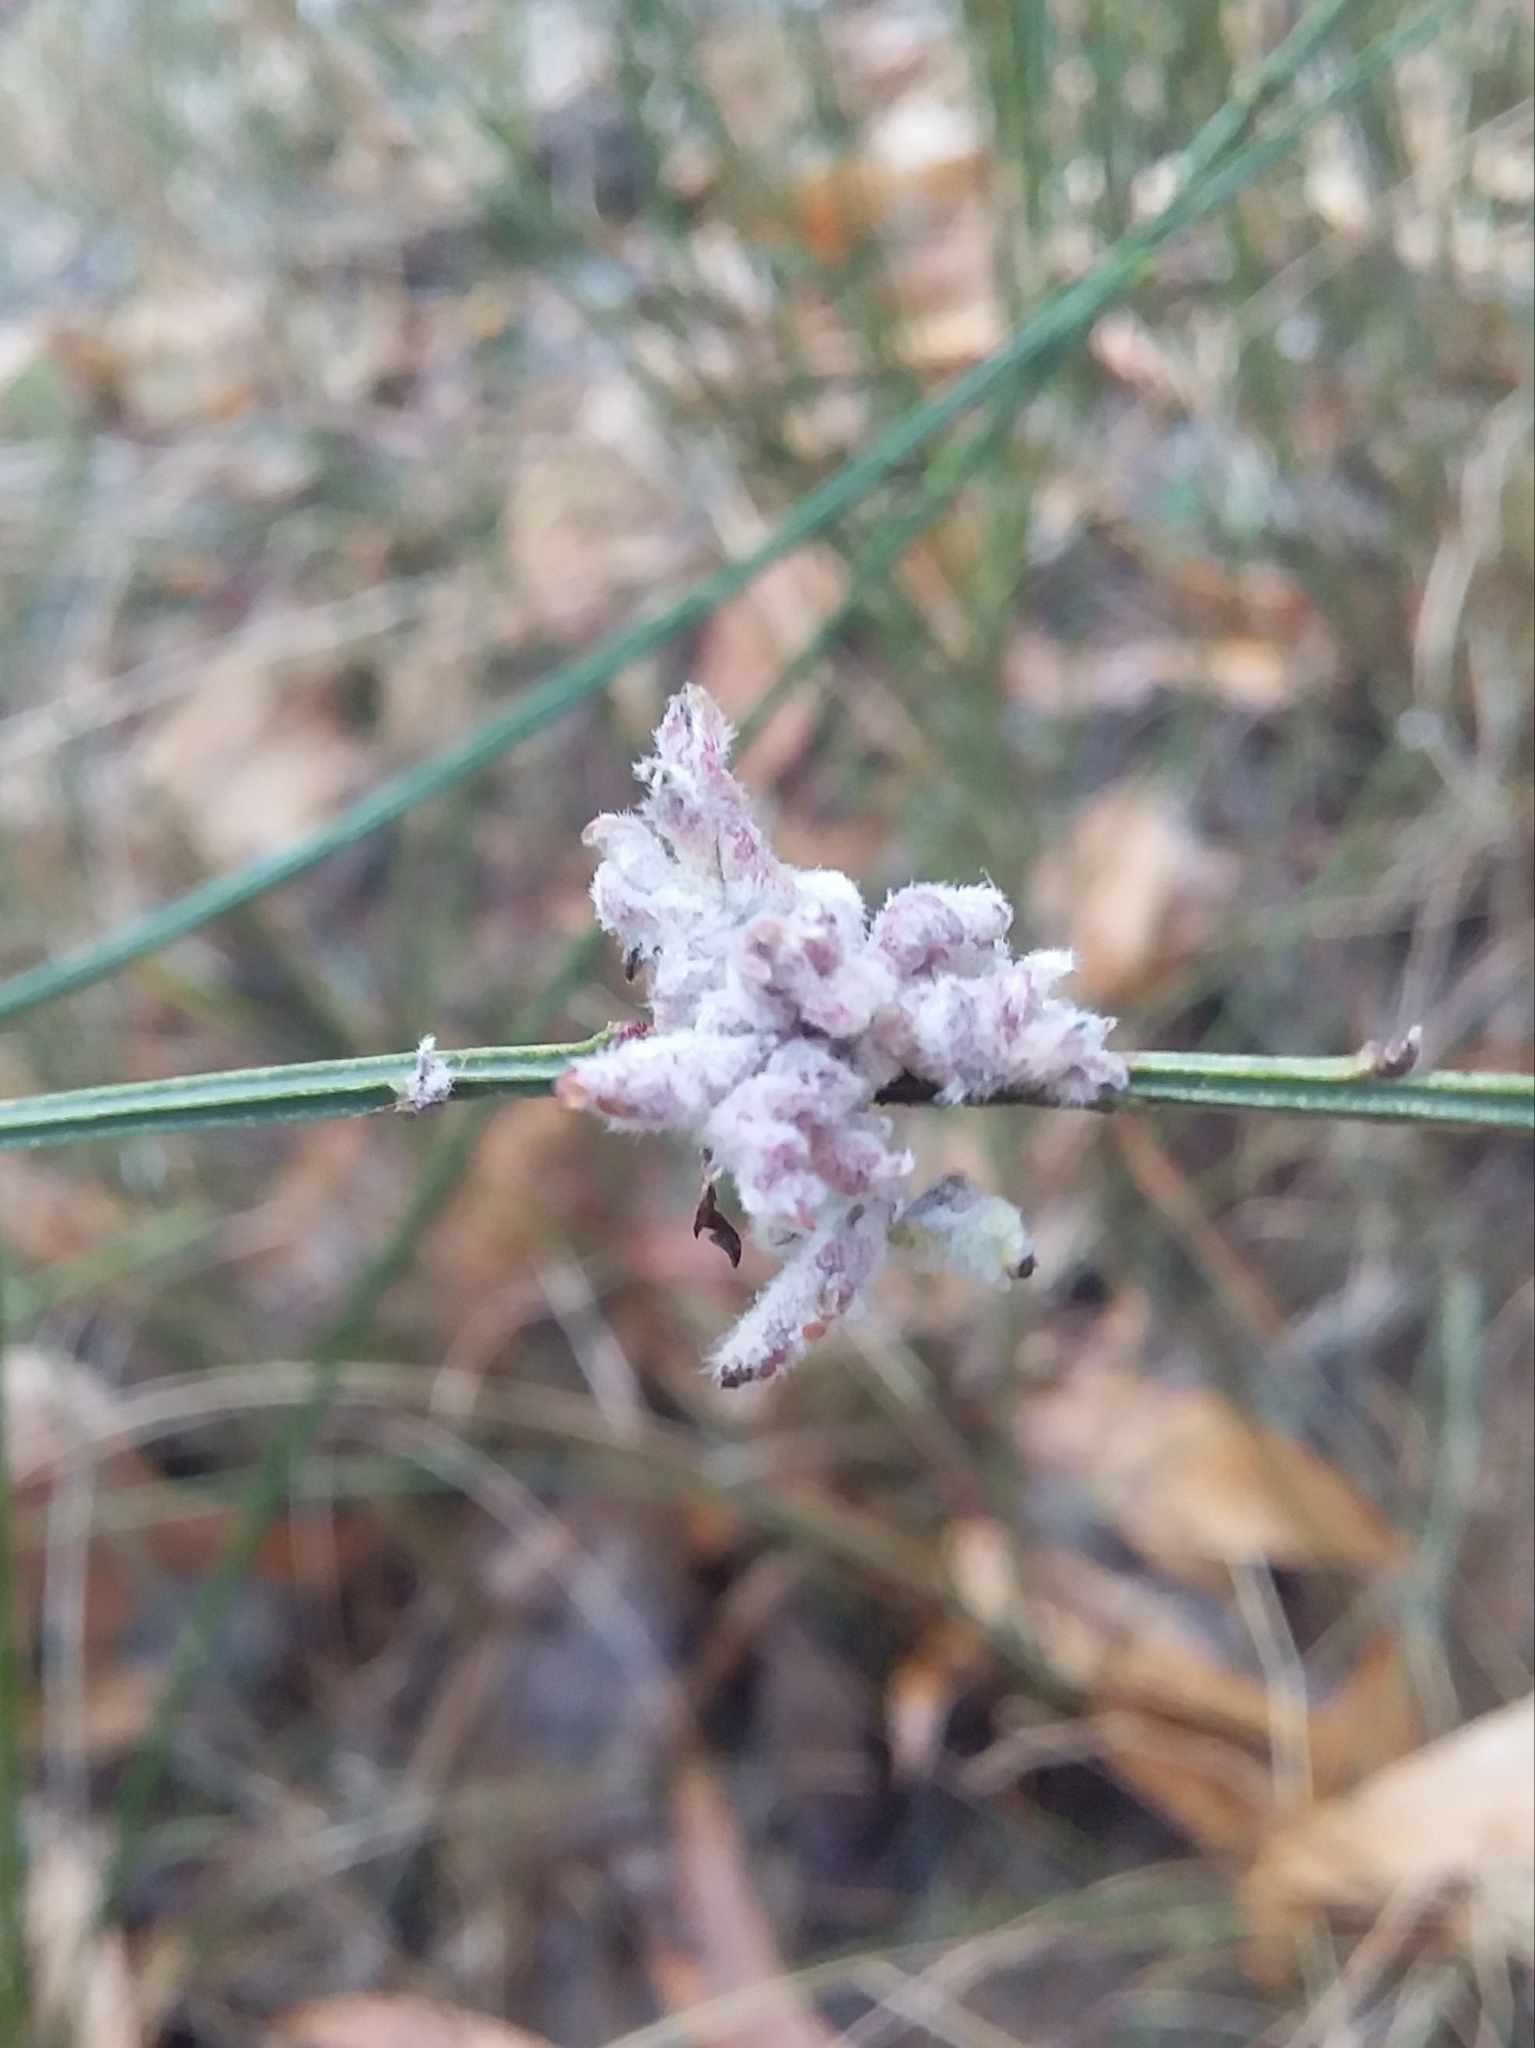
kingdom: Animalia
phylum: Arthropoda
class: Arachnida
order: Trombidiformes
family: Eriophyidae
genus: Aceria
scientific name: Aceria genistae
